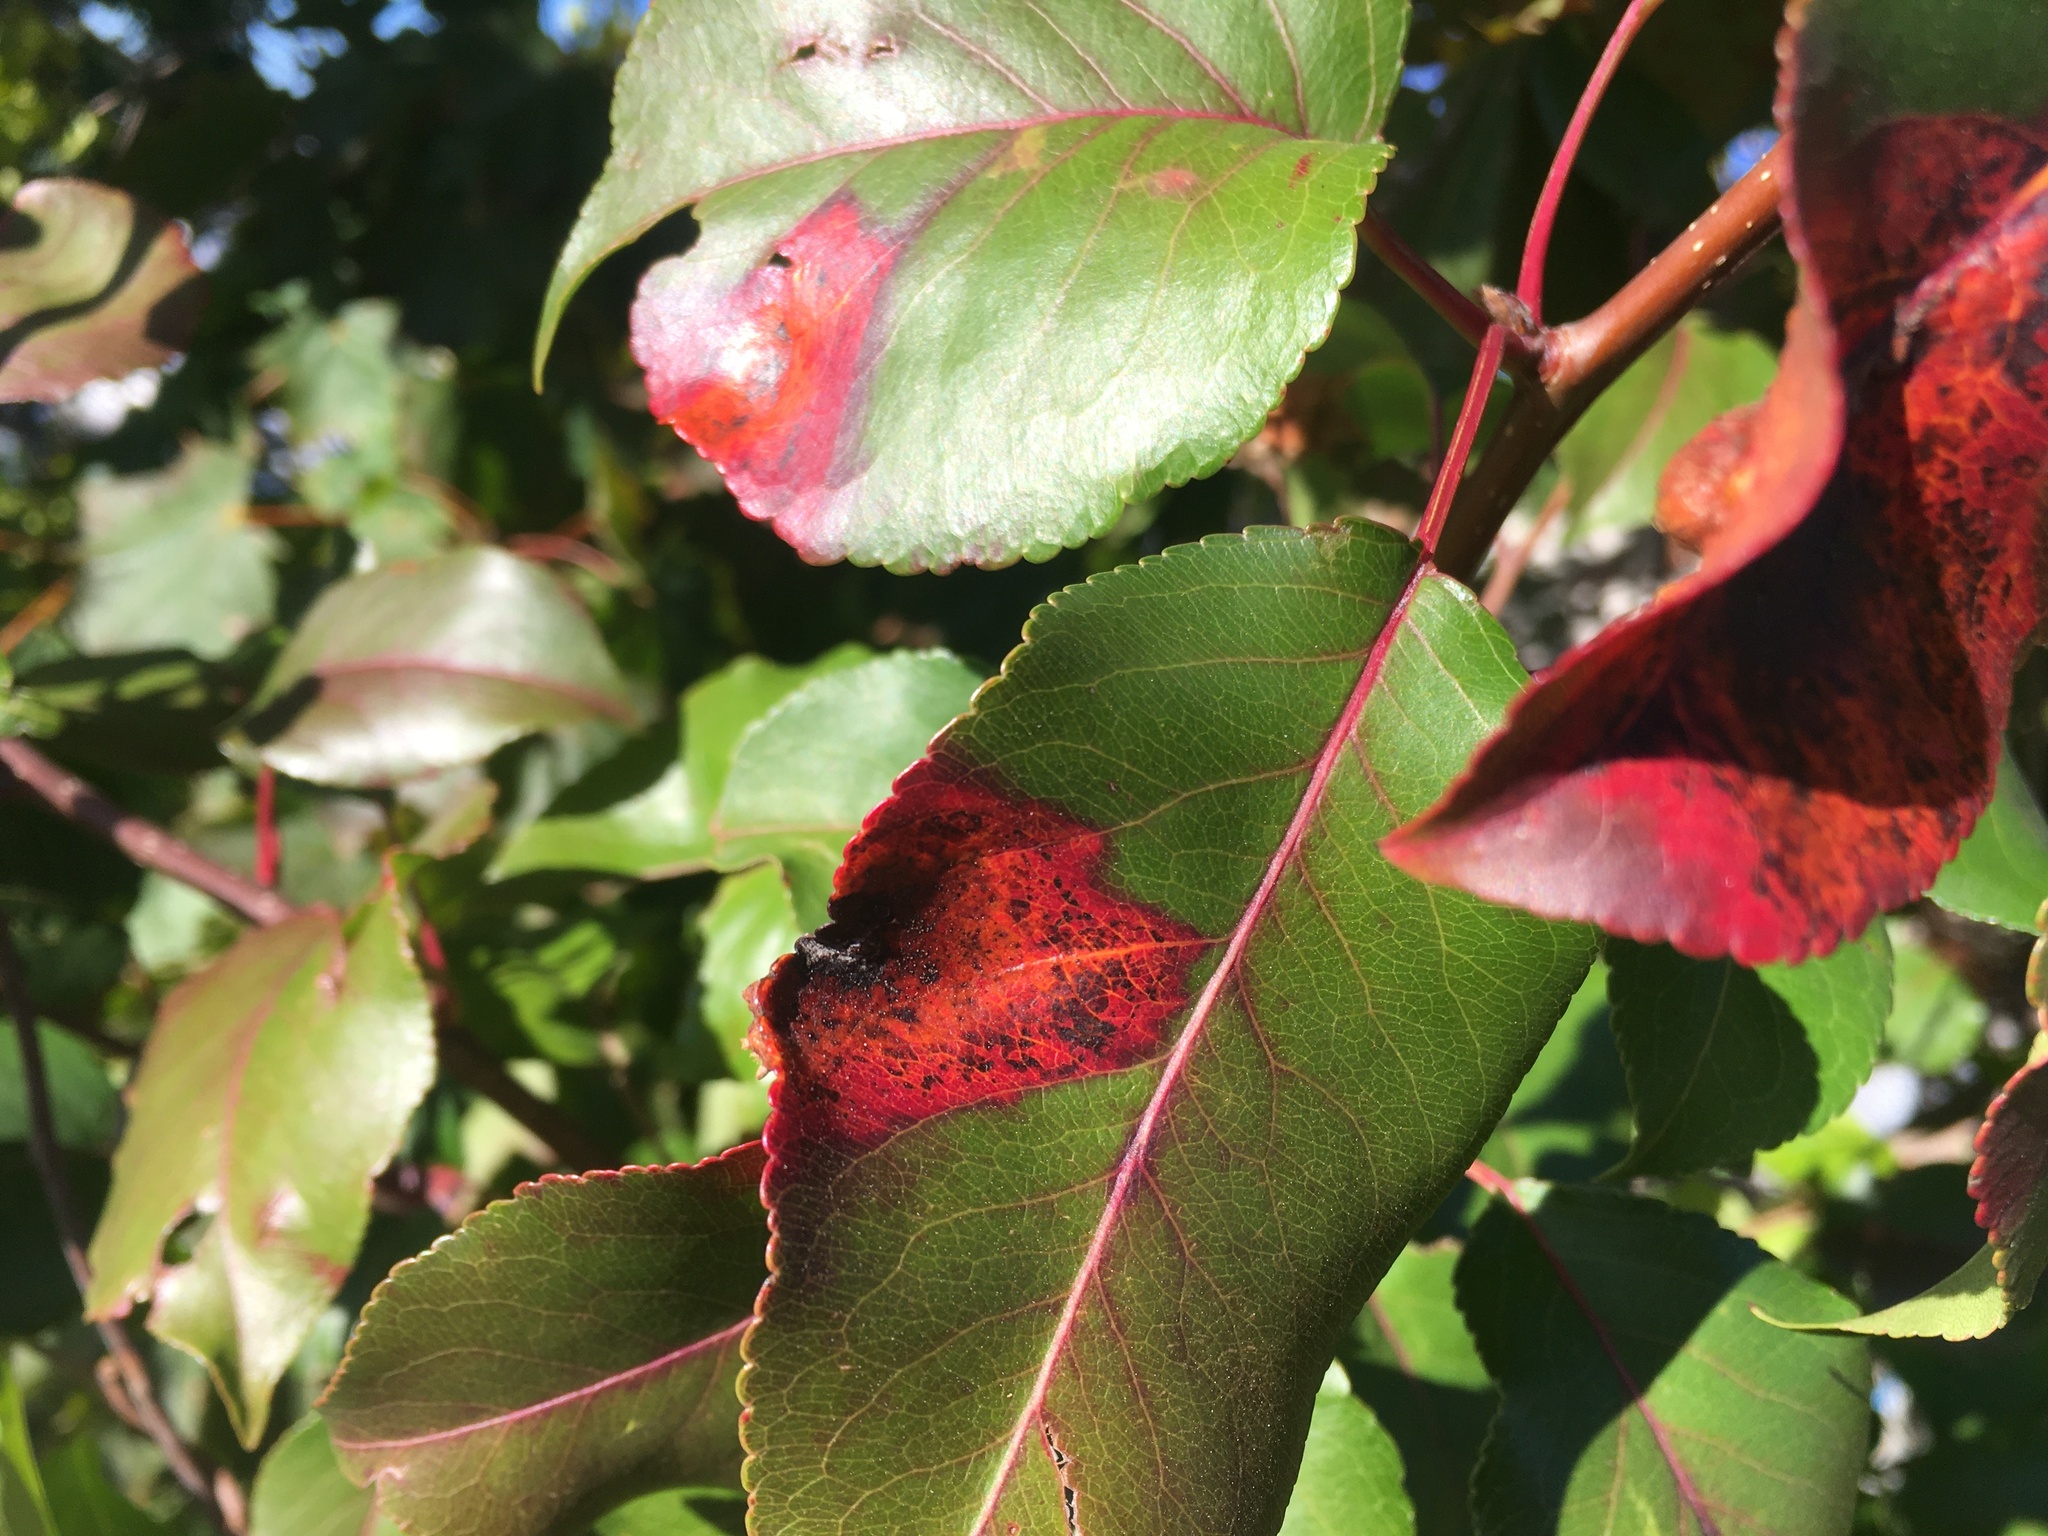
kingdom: Fungi
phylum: Basidiomycota
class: Pucciniomycetes
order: Pucciniales
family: Gymnosporangiaceae
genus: Gymnosporangium
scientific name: Gymnosporangium sabinae
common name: Pear trellis rust fungus
